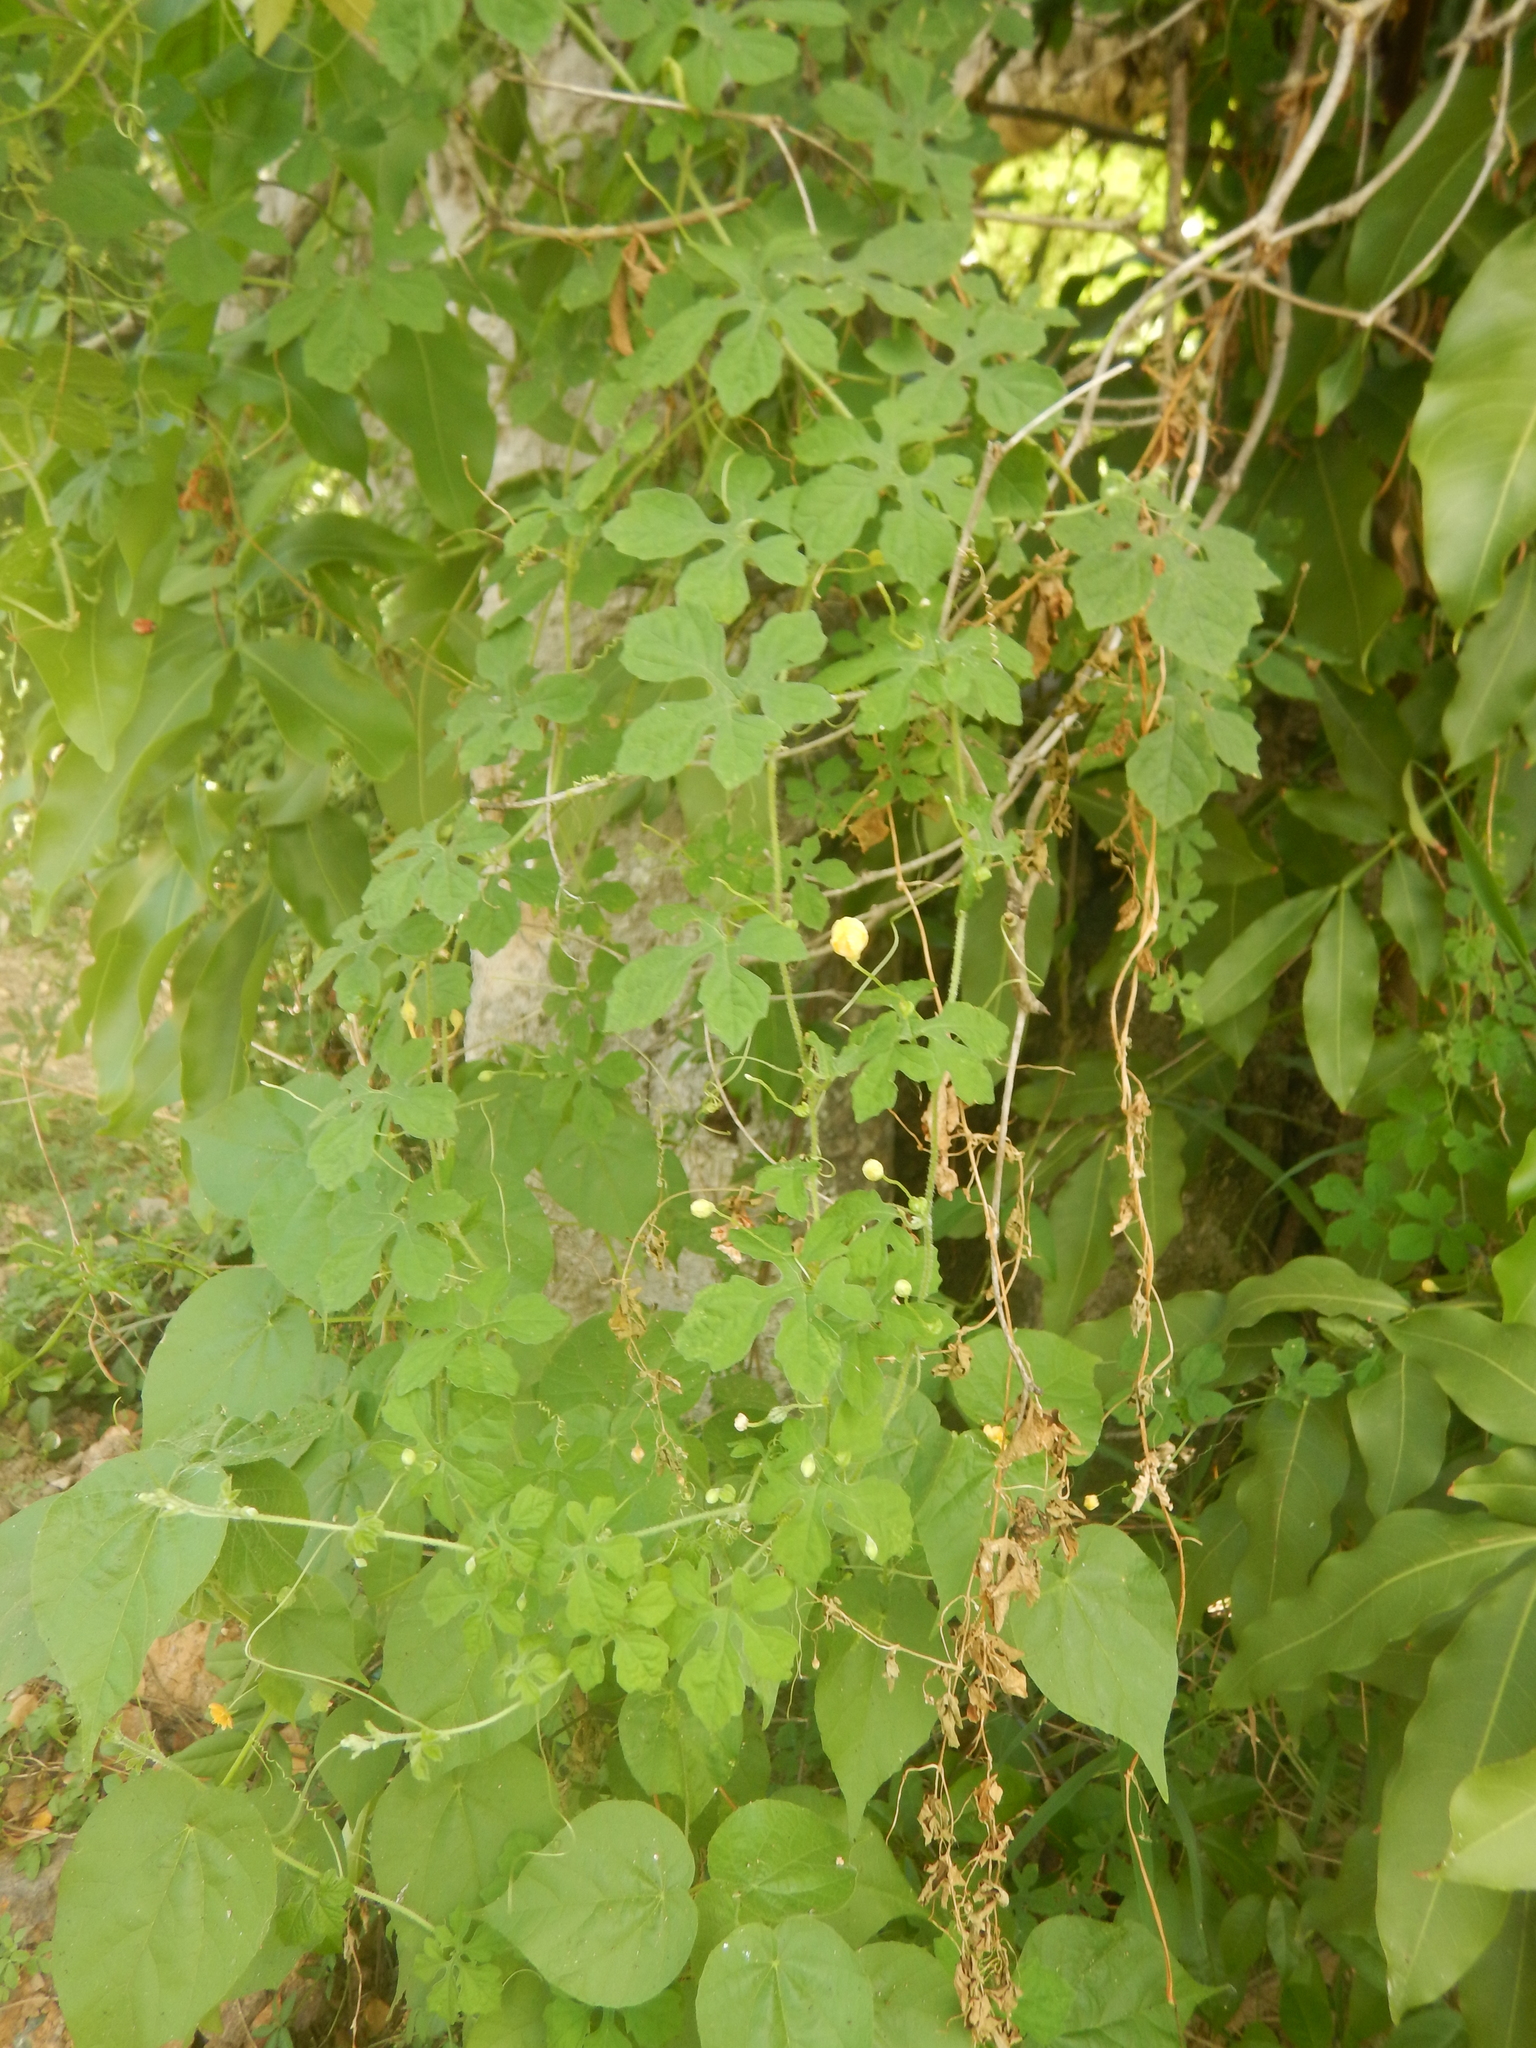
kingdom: Plantae
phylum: Tracheophyta
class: Magnoliopsida
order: Cucurbitales
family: Cucurbitaceae
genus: Momordica
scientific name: Momordica charantia
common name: Balsampear
